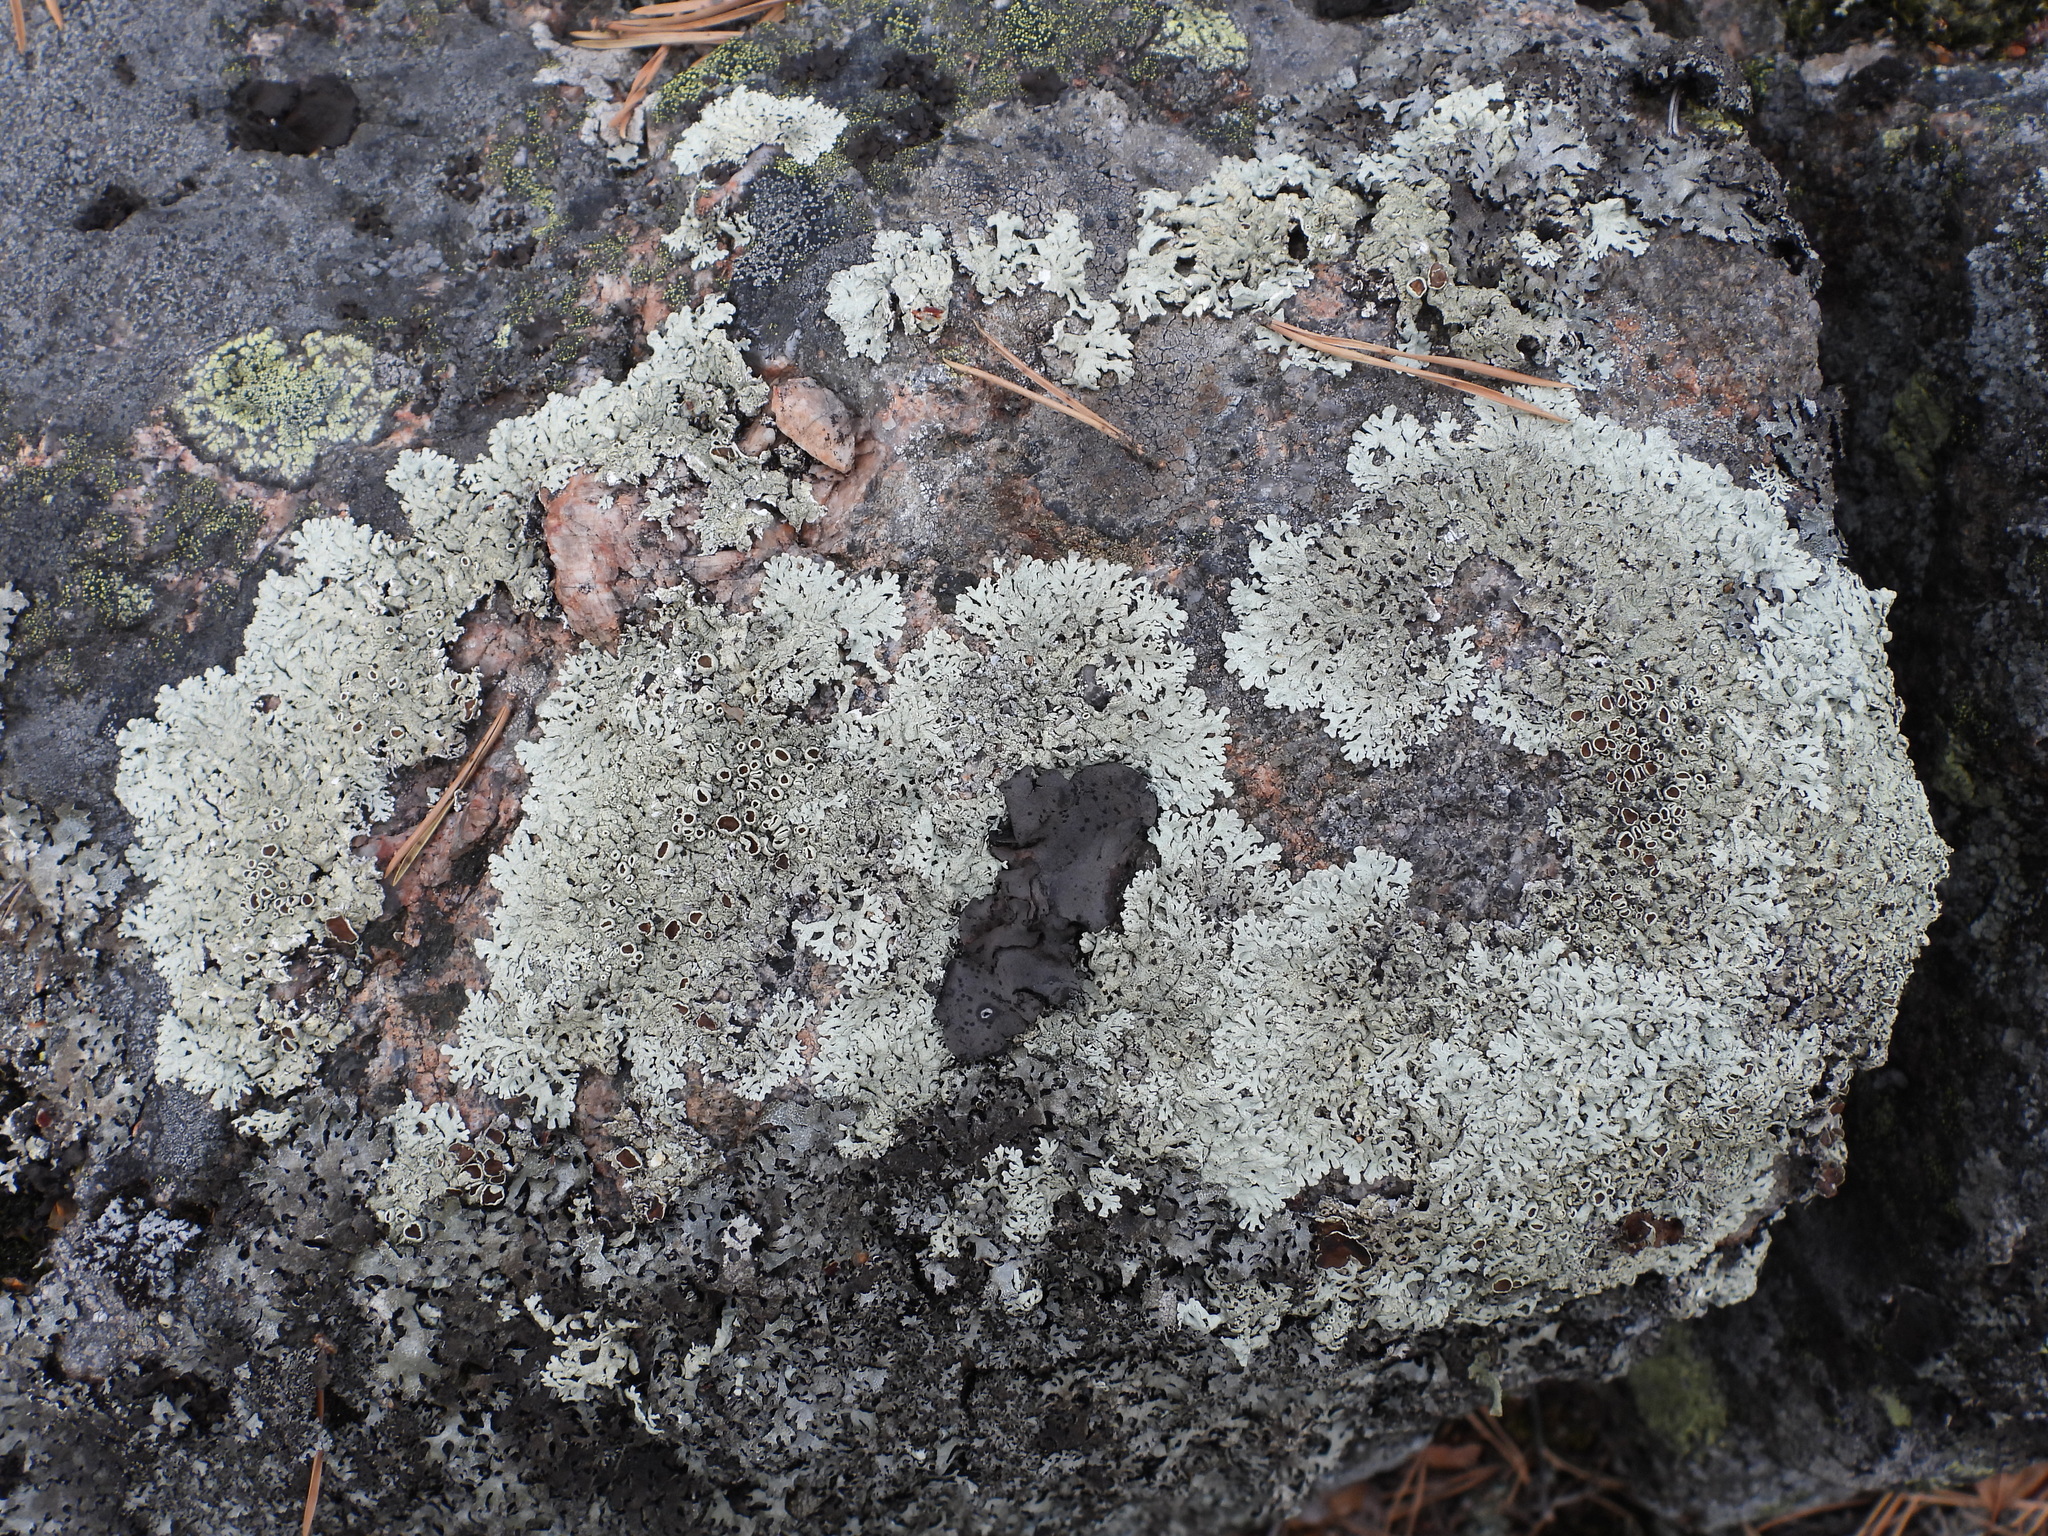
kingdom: Fungi
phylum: Ascomycota
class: Lecanoromycetes
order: Lecanorales
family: Parmeliaceae
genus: Arctoparmelia
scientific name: Arctoparmelia centrifuga
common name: Concentric ring lichen
